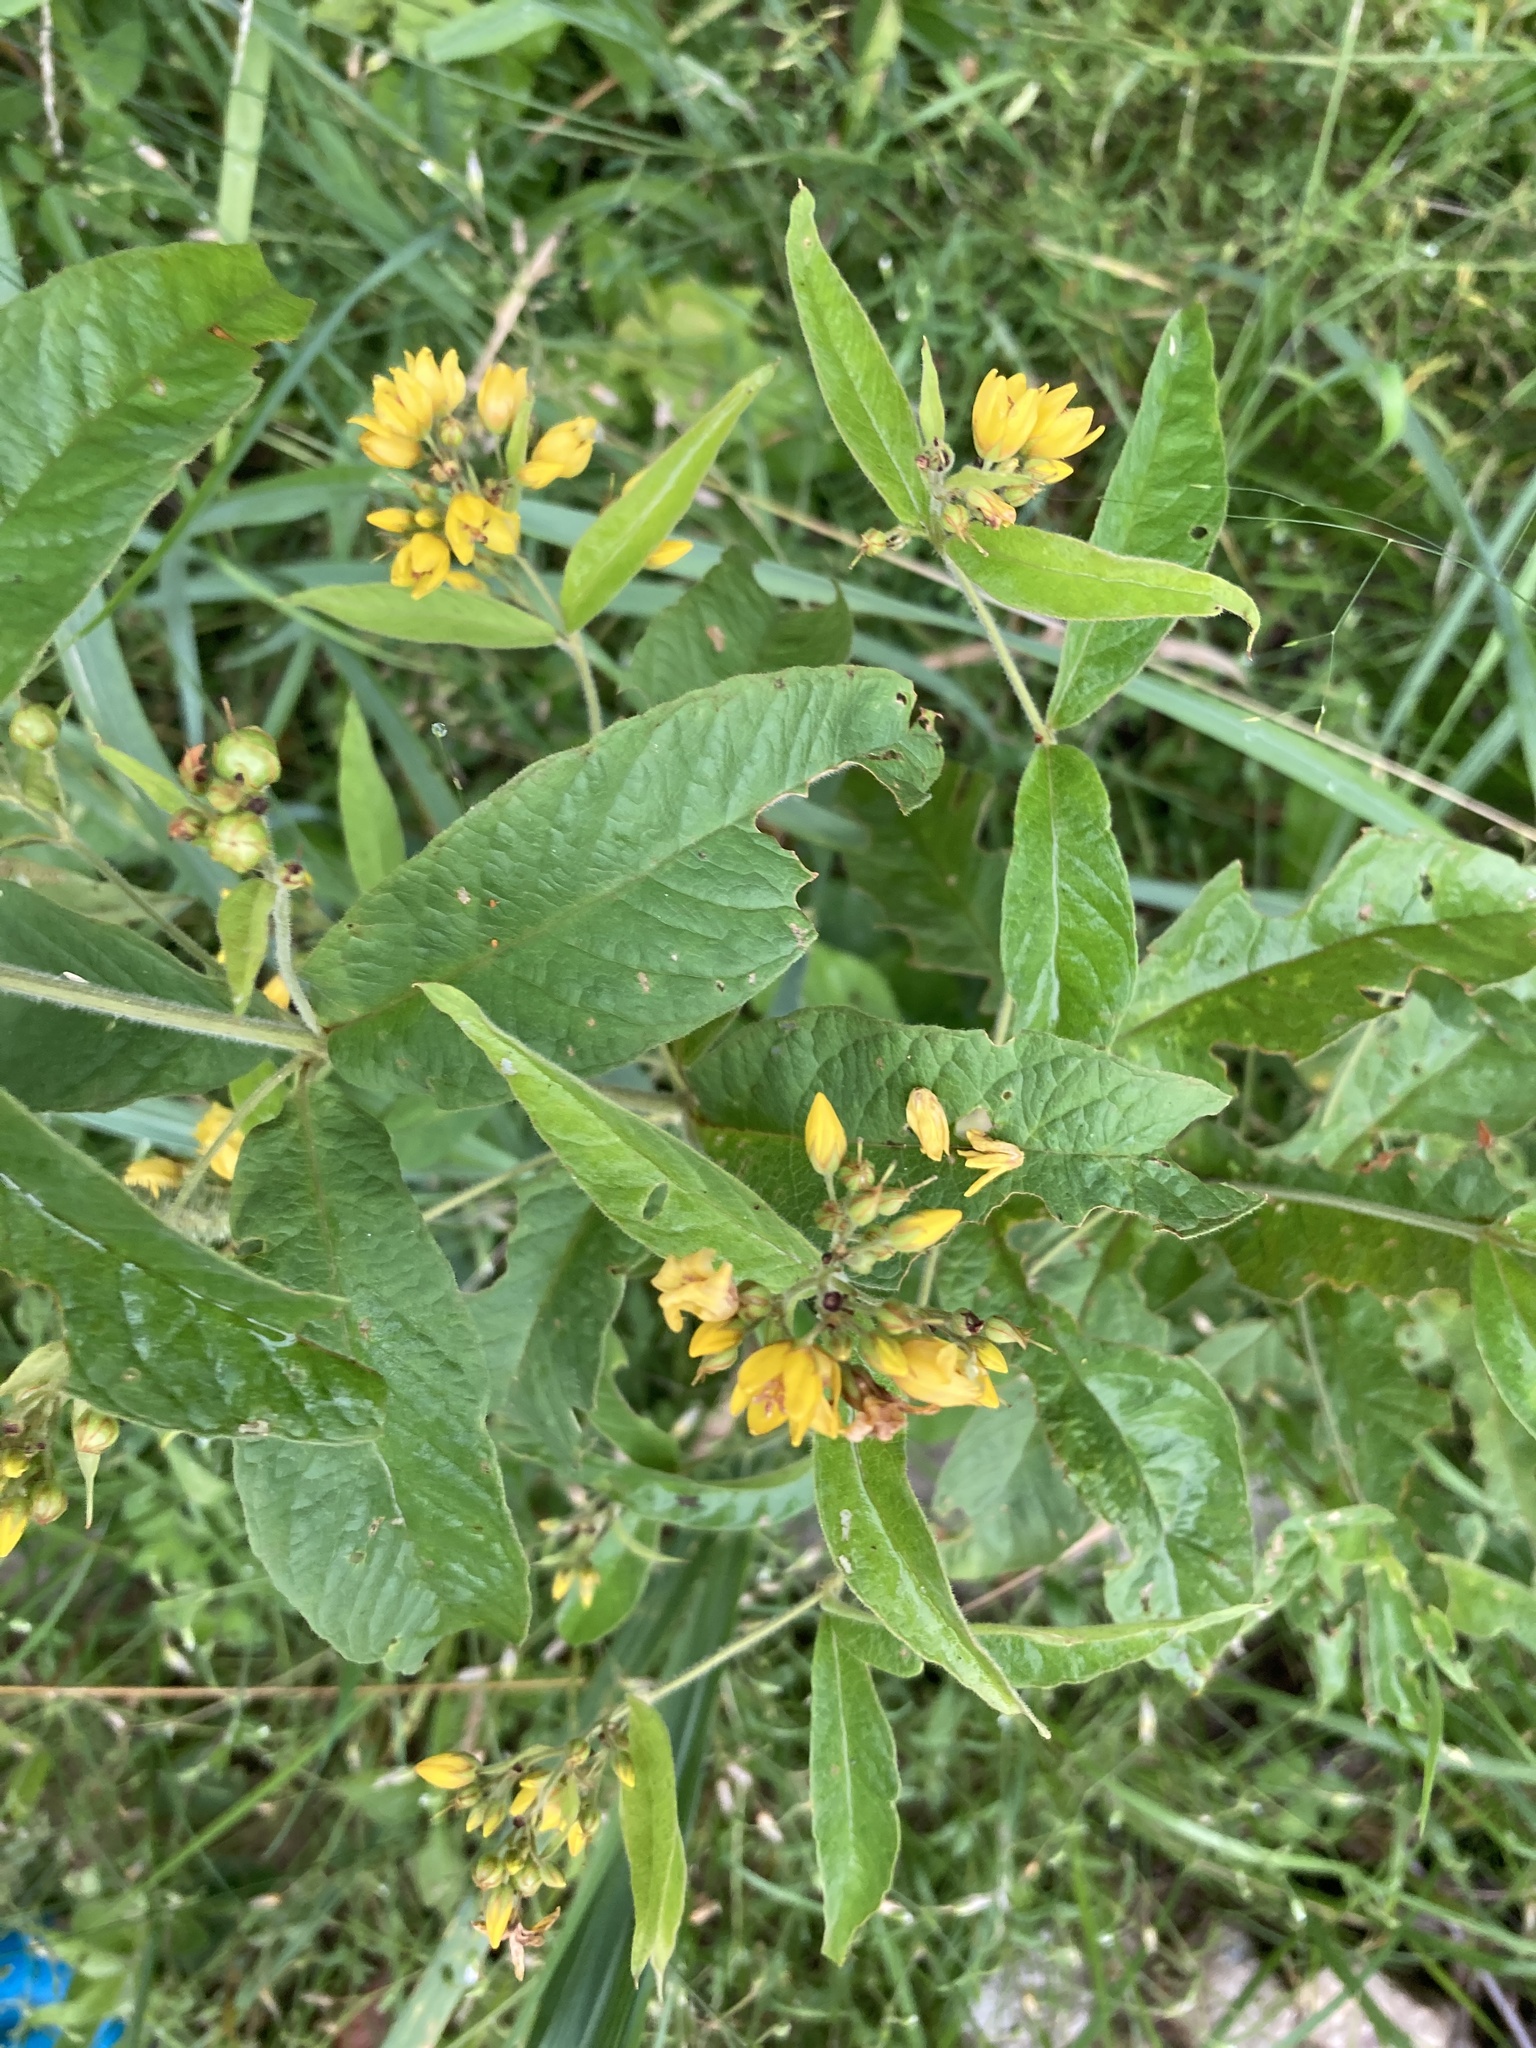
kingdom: Plantae
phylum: Tracheophyta
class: Magnoliopsida
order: Ericales
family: Primulaceae
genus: Lysimachia
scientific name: Lysimachia vulgaris
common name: Yellow loosestrife
